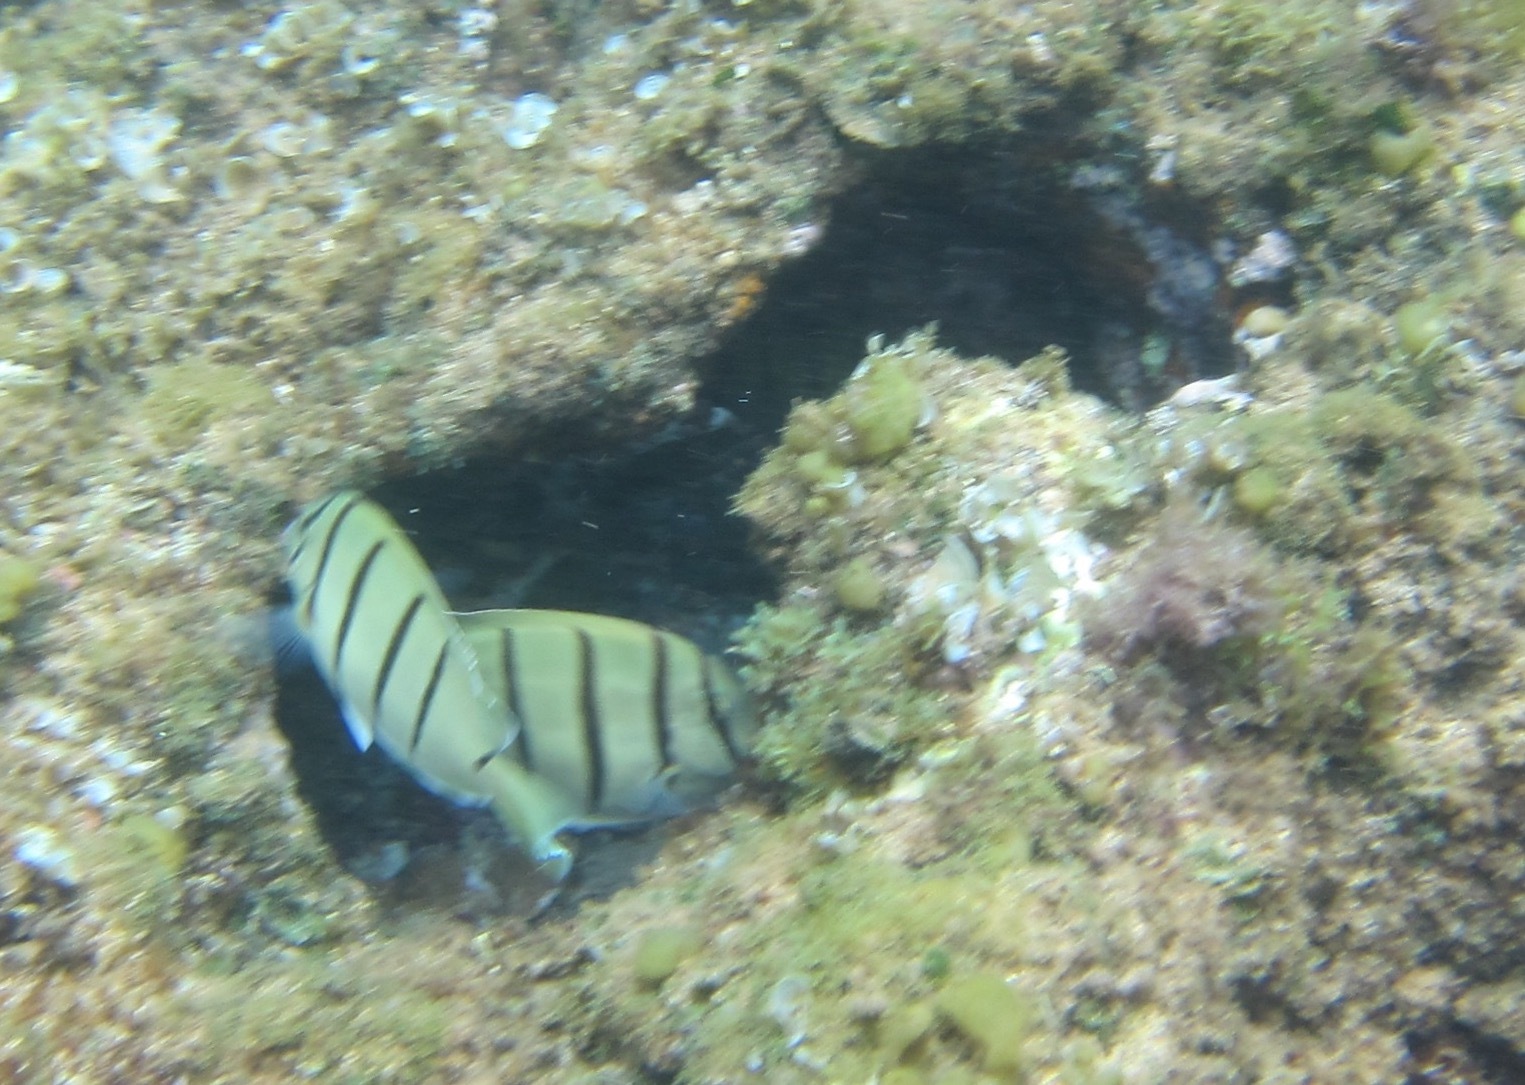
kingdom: Animalia
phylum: Chordata
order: Perciformes
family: Acanthuridae
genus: Acanthurus
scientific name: Acanthurus triostegus
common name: Convict surgeonfish
